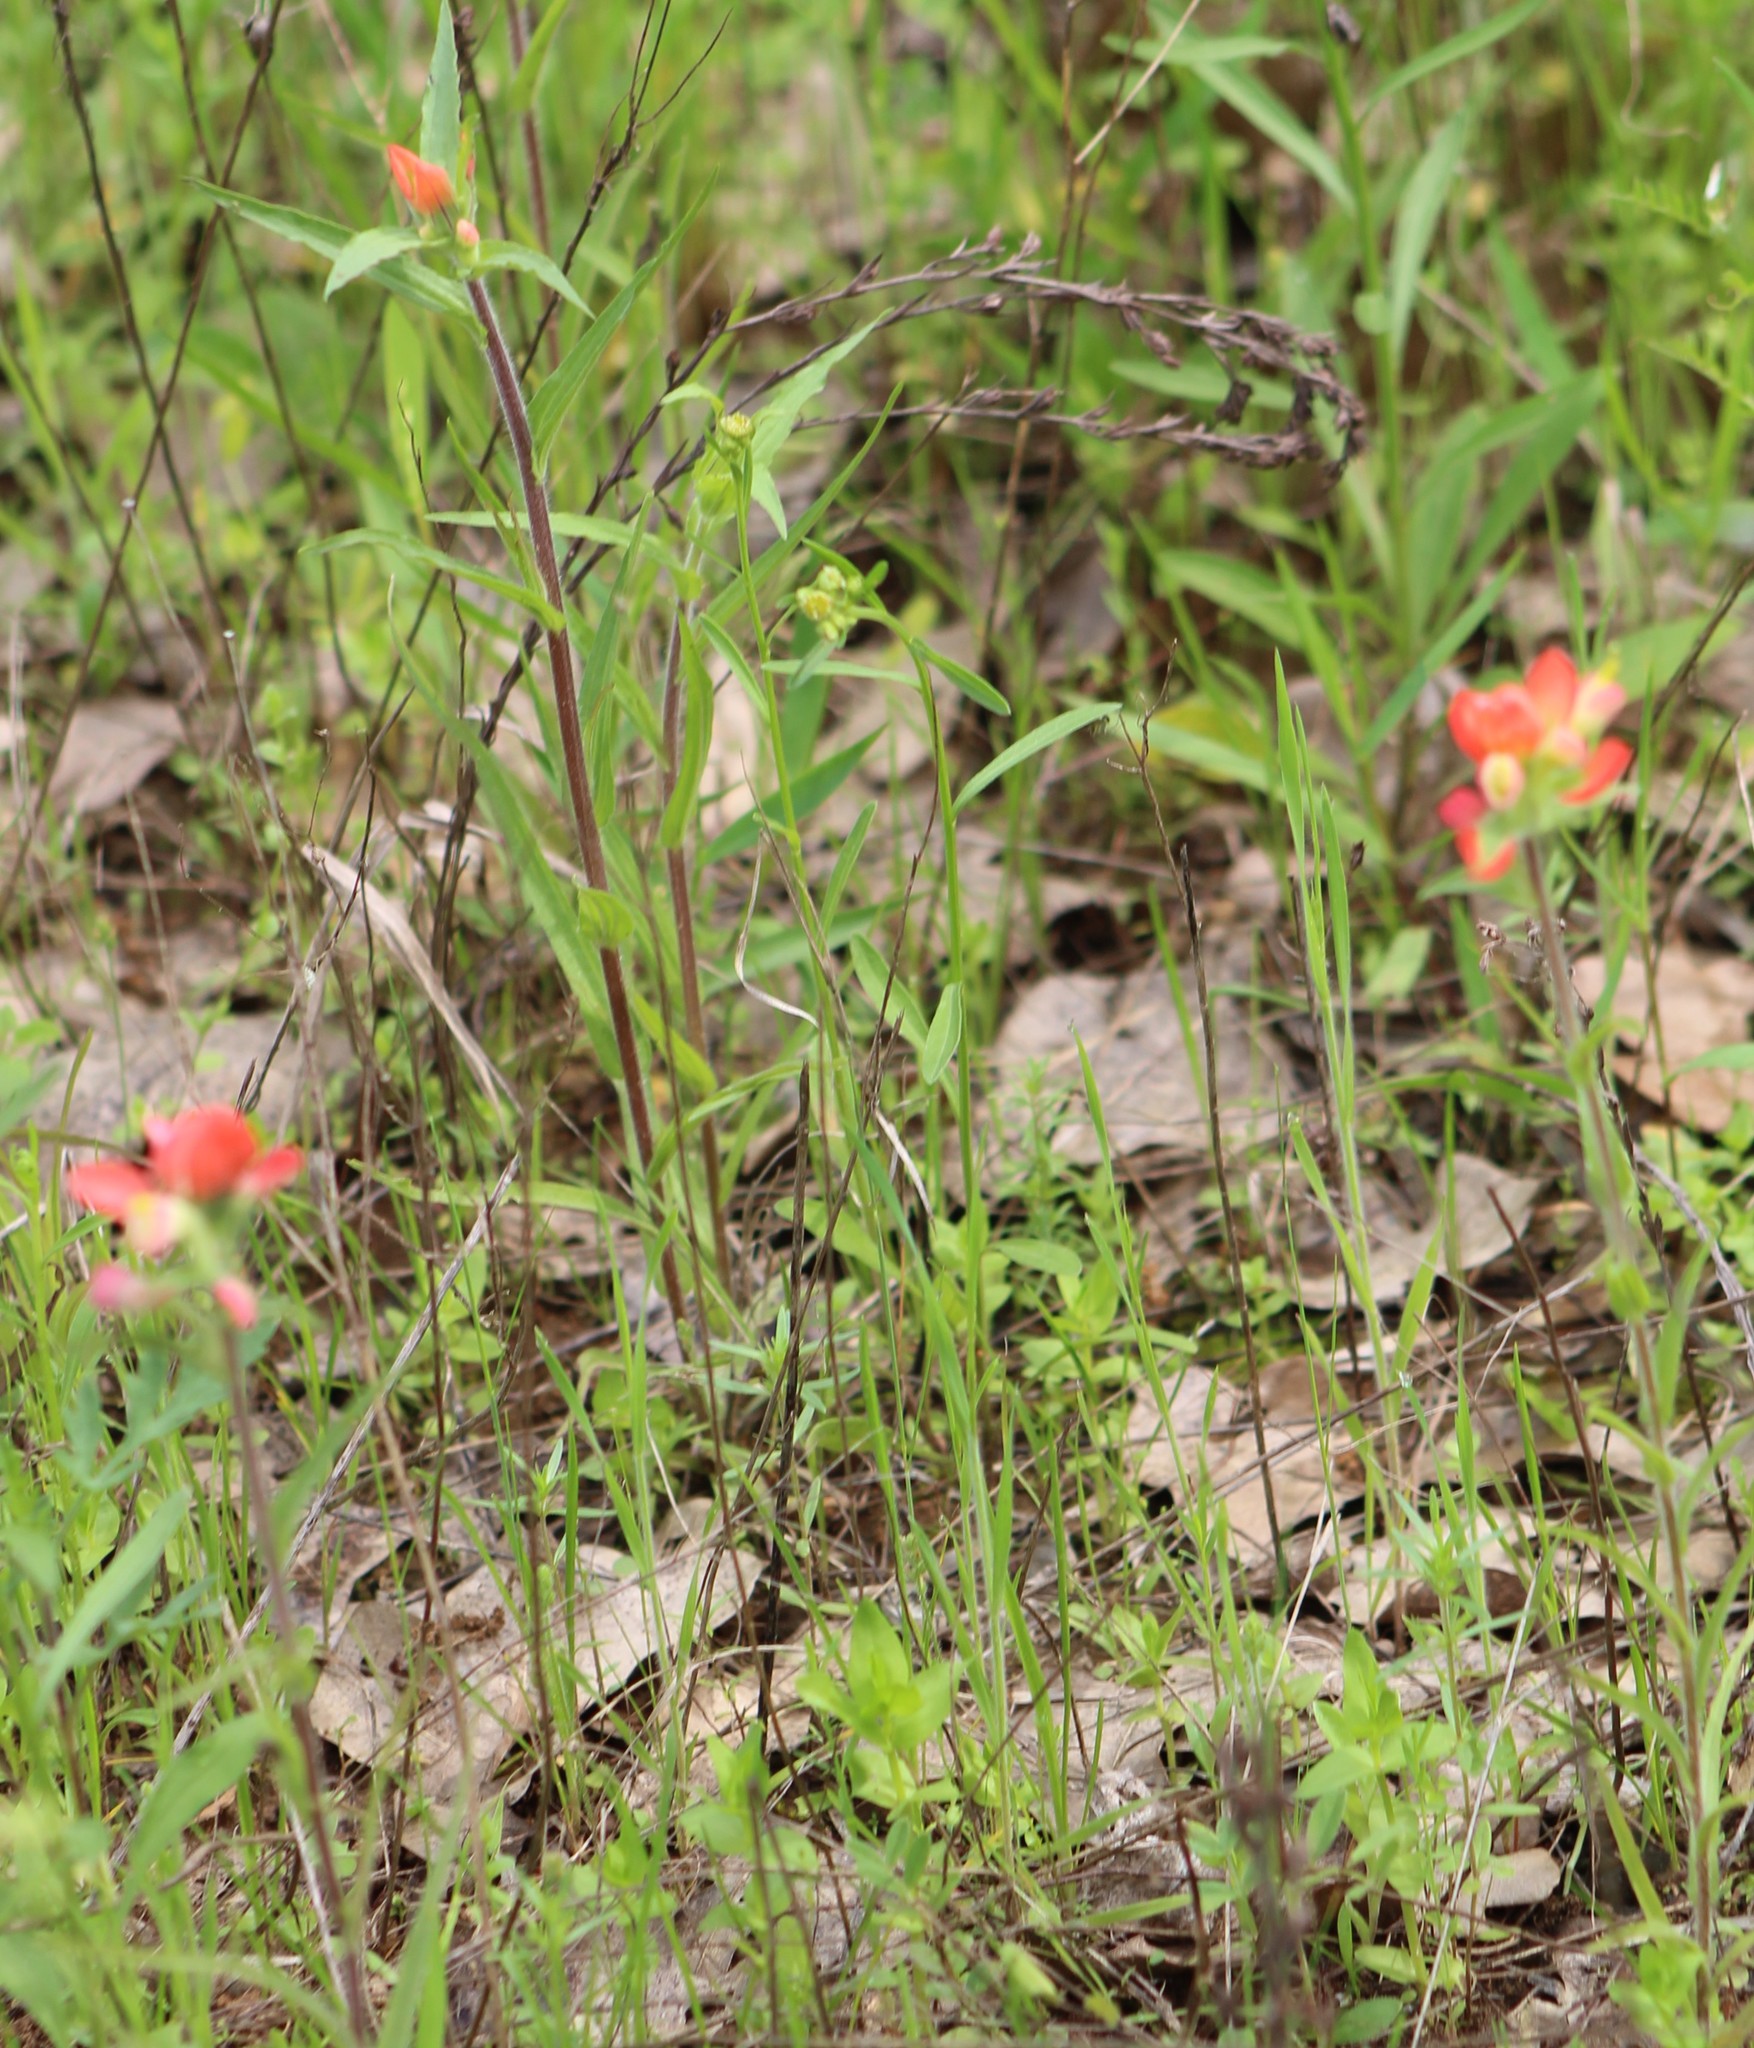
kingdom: Plantae
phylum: Tracheophyta
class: Magnoliopsida
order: Lamiales
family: Orobanchaceae
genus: Castilleja
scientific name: Castilleja indivisa
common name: Texas paintbrush
